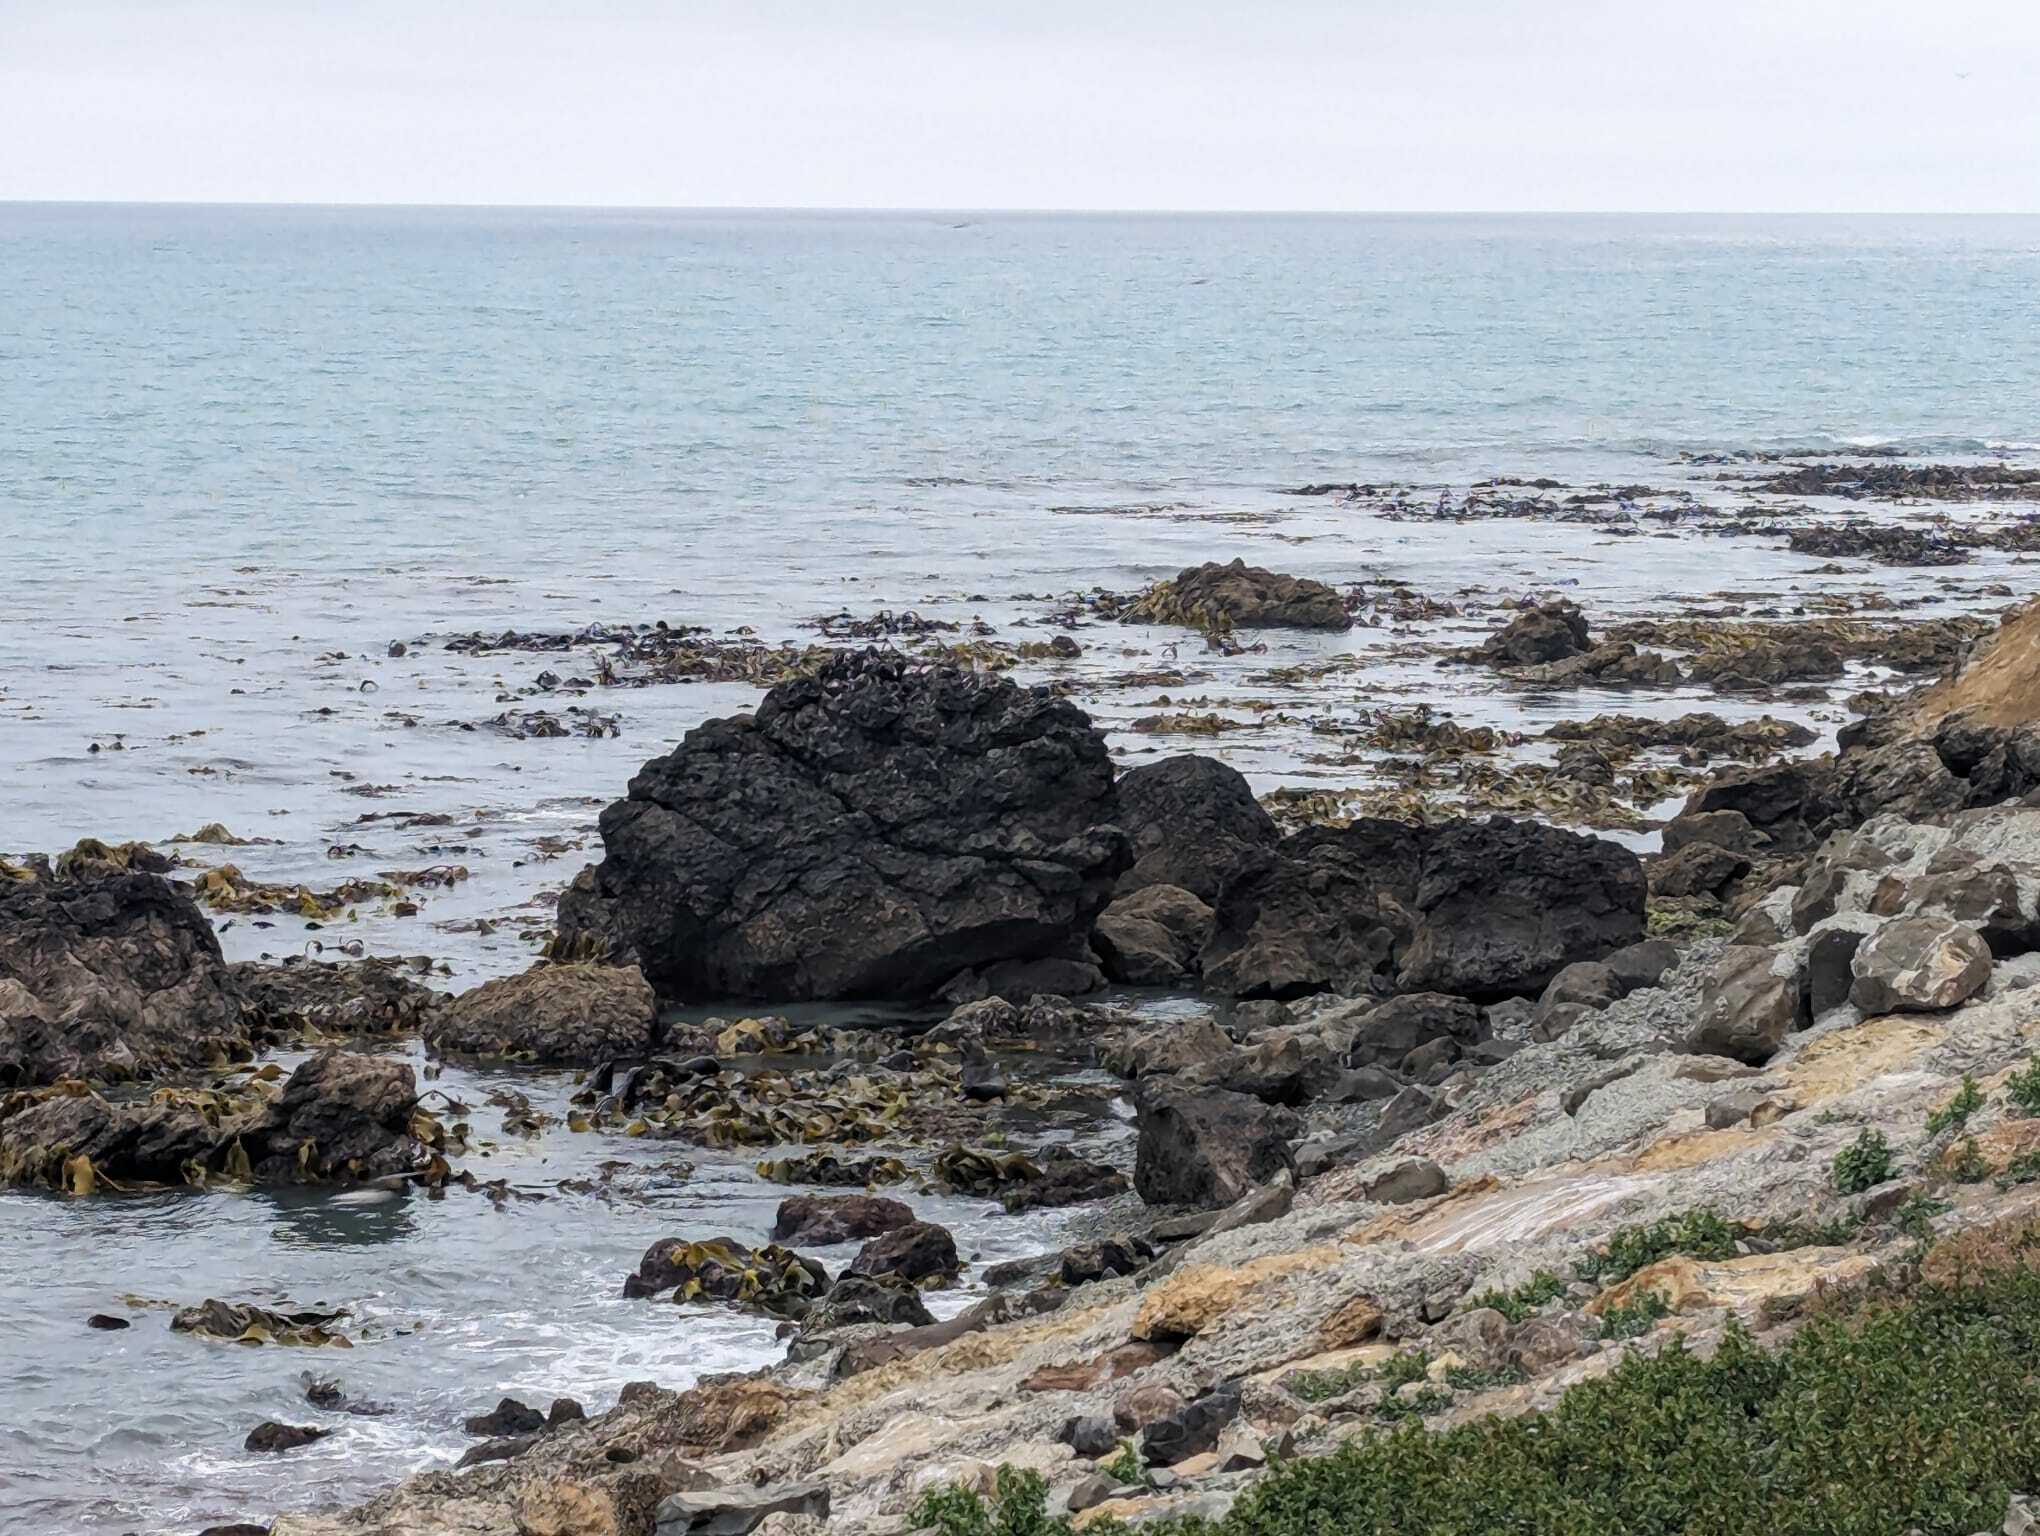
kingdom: Animalia
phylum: Chordata
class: Mammalia
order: Carnivora
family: Otariidae
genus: Arctocephalus
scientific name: Arctocephalus forsteri
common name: New zealand fur seal
